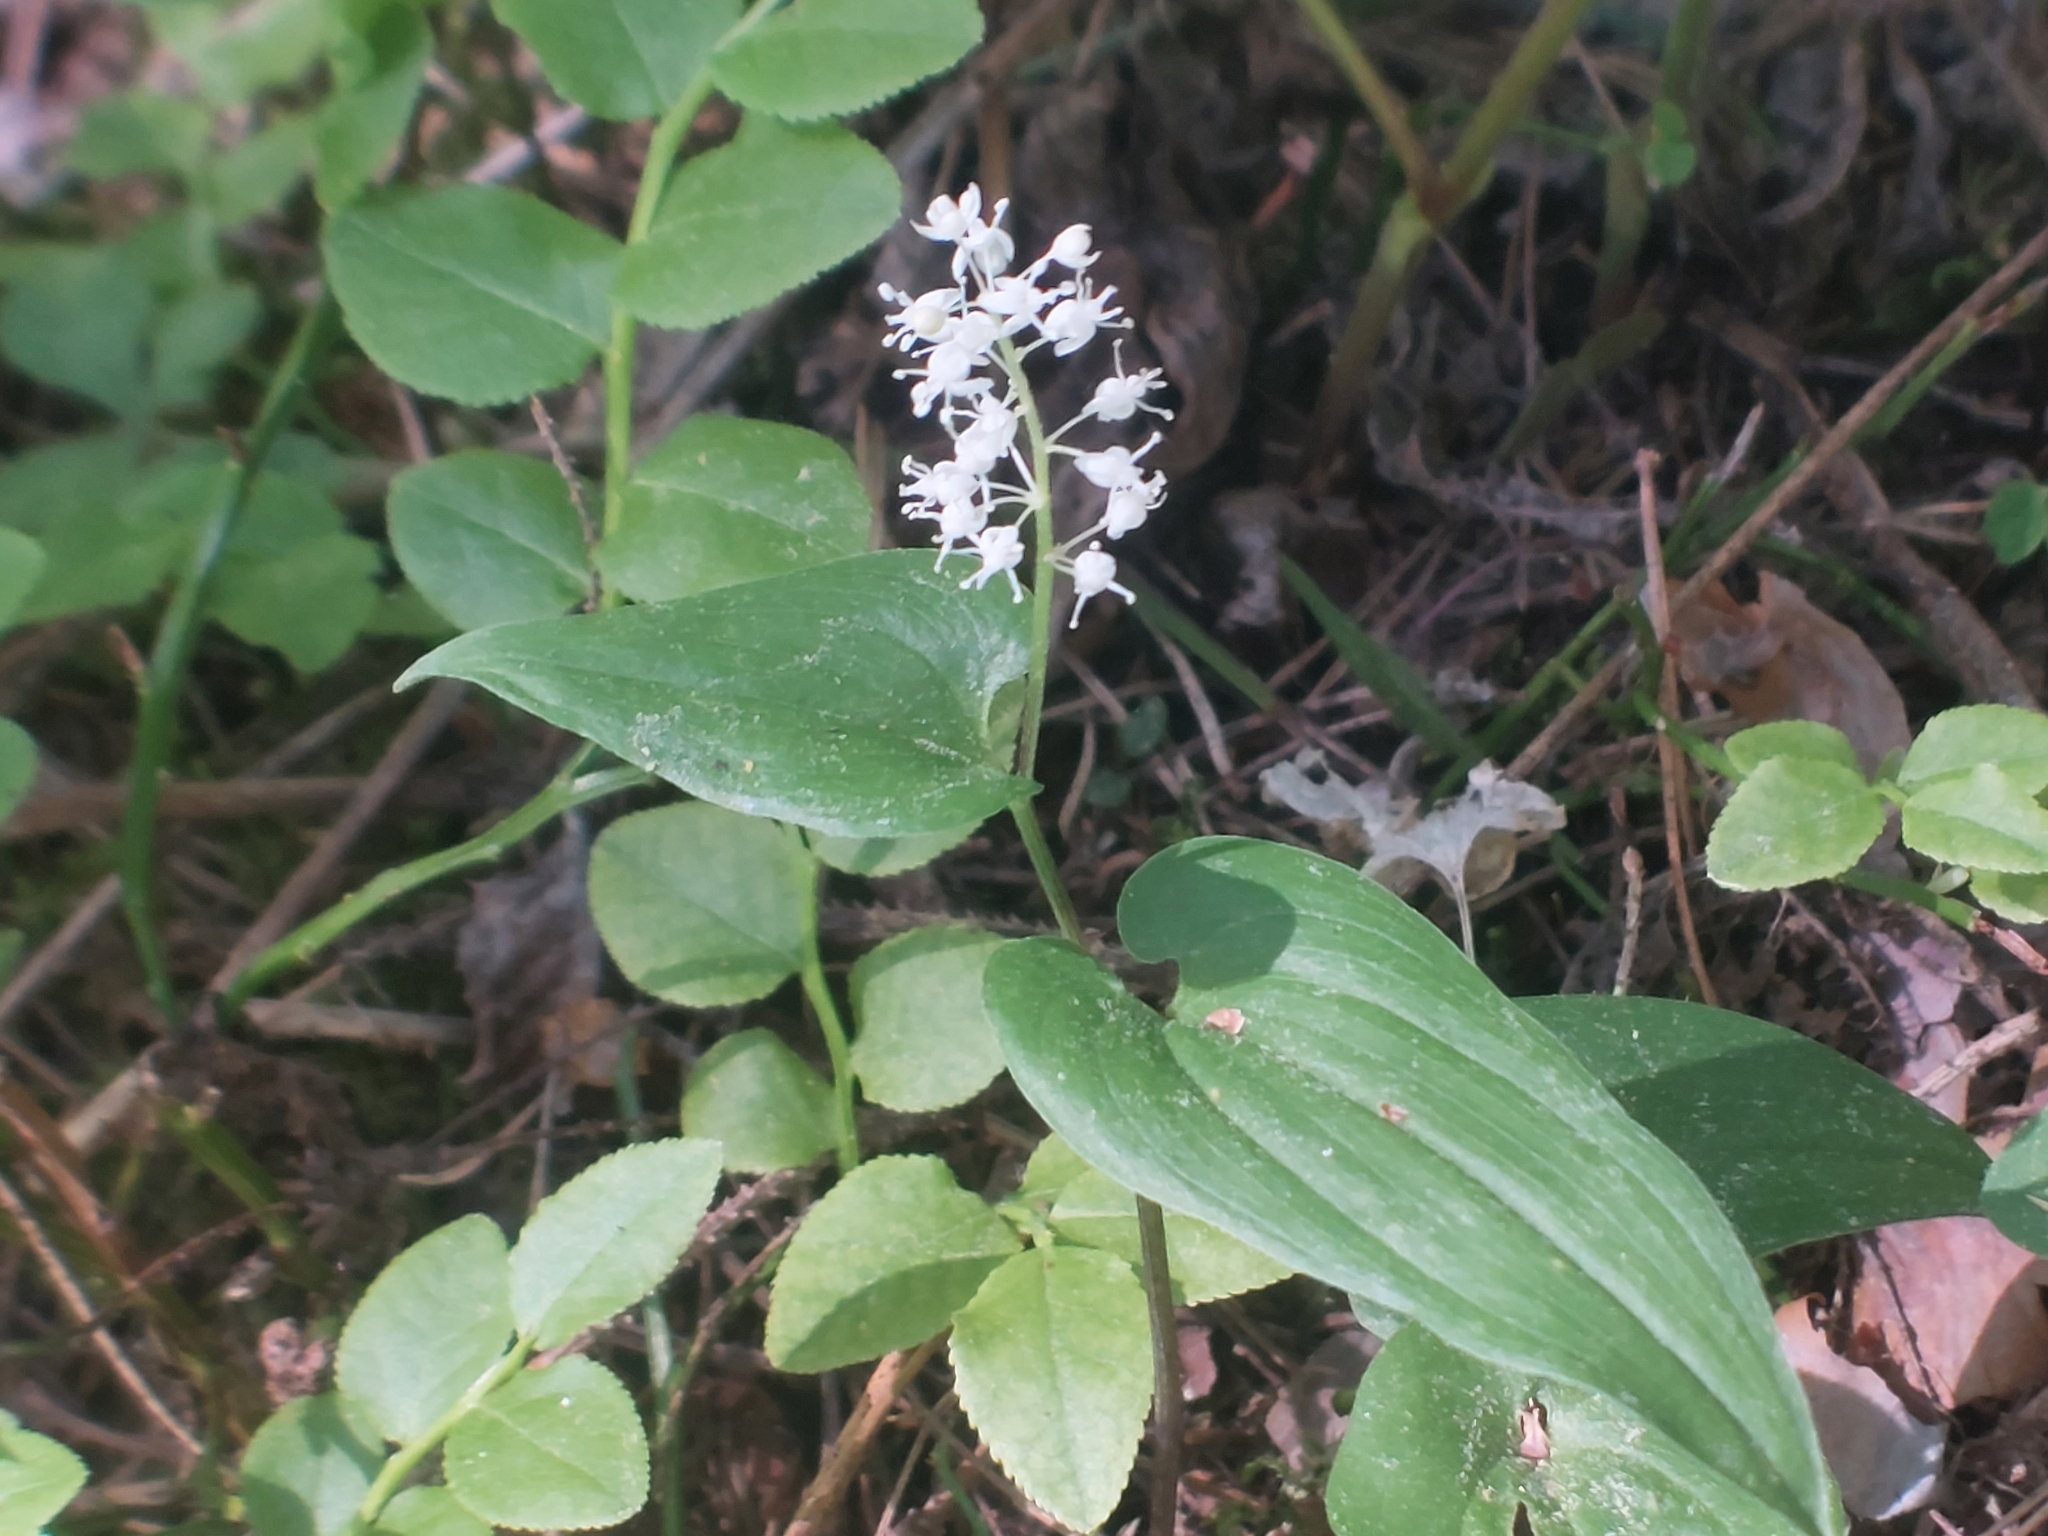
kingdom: Plantae
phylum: Tracheophyta
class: Liliopsida
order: Asparagales
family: Asparagaceae
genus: Maianthemum
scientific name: Maianthemum bifolium
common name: May lily
